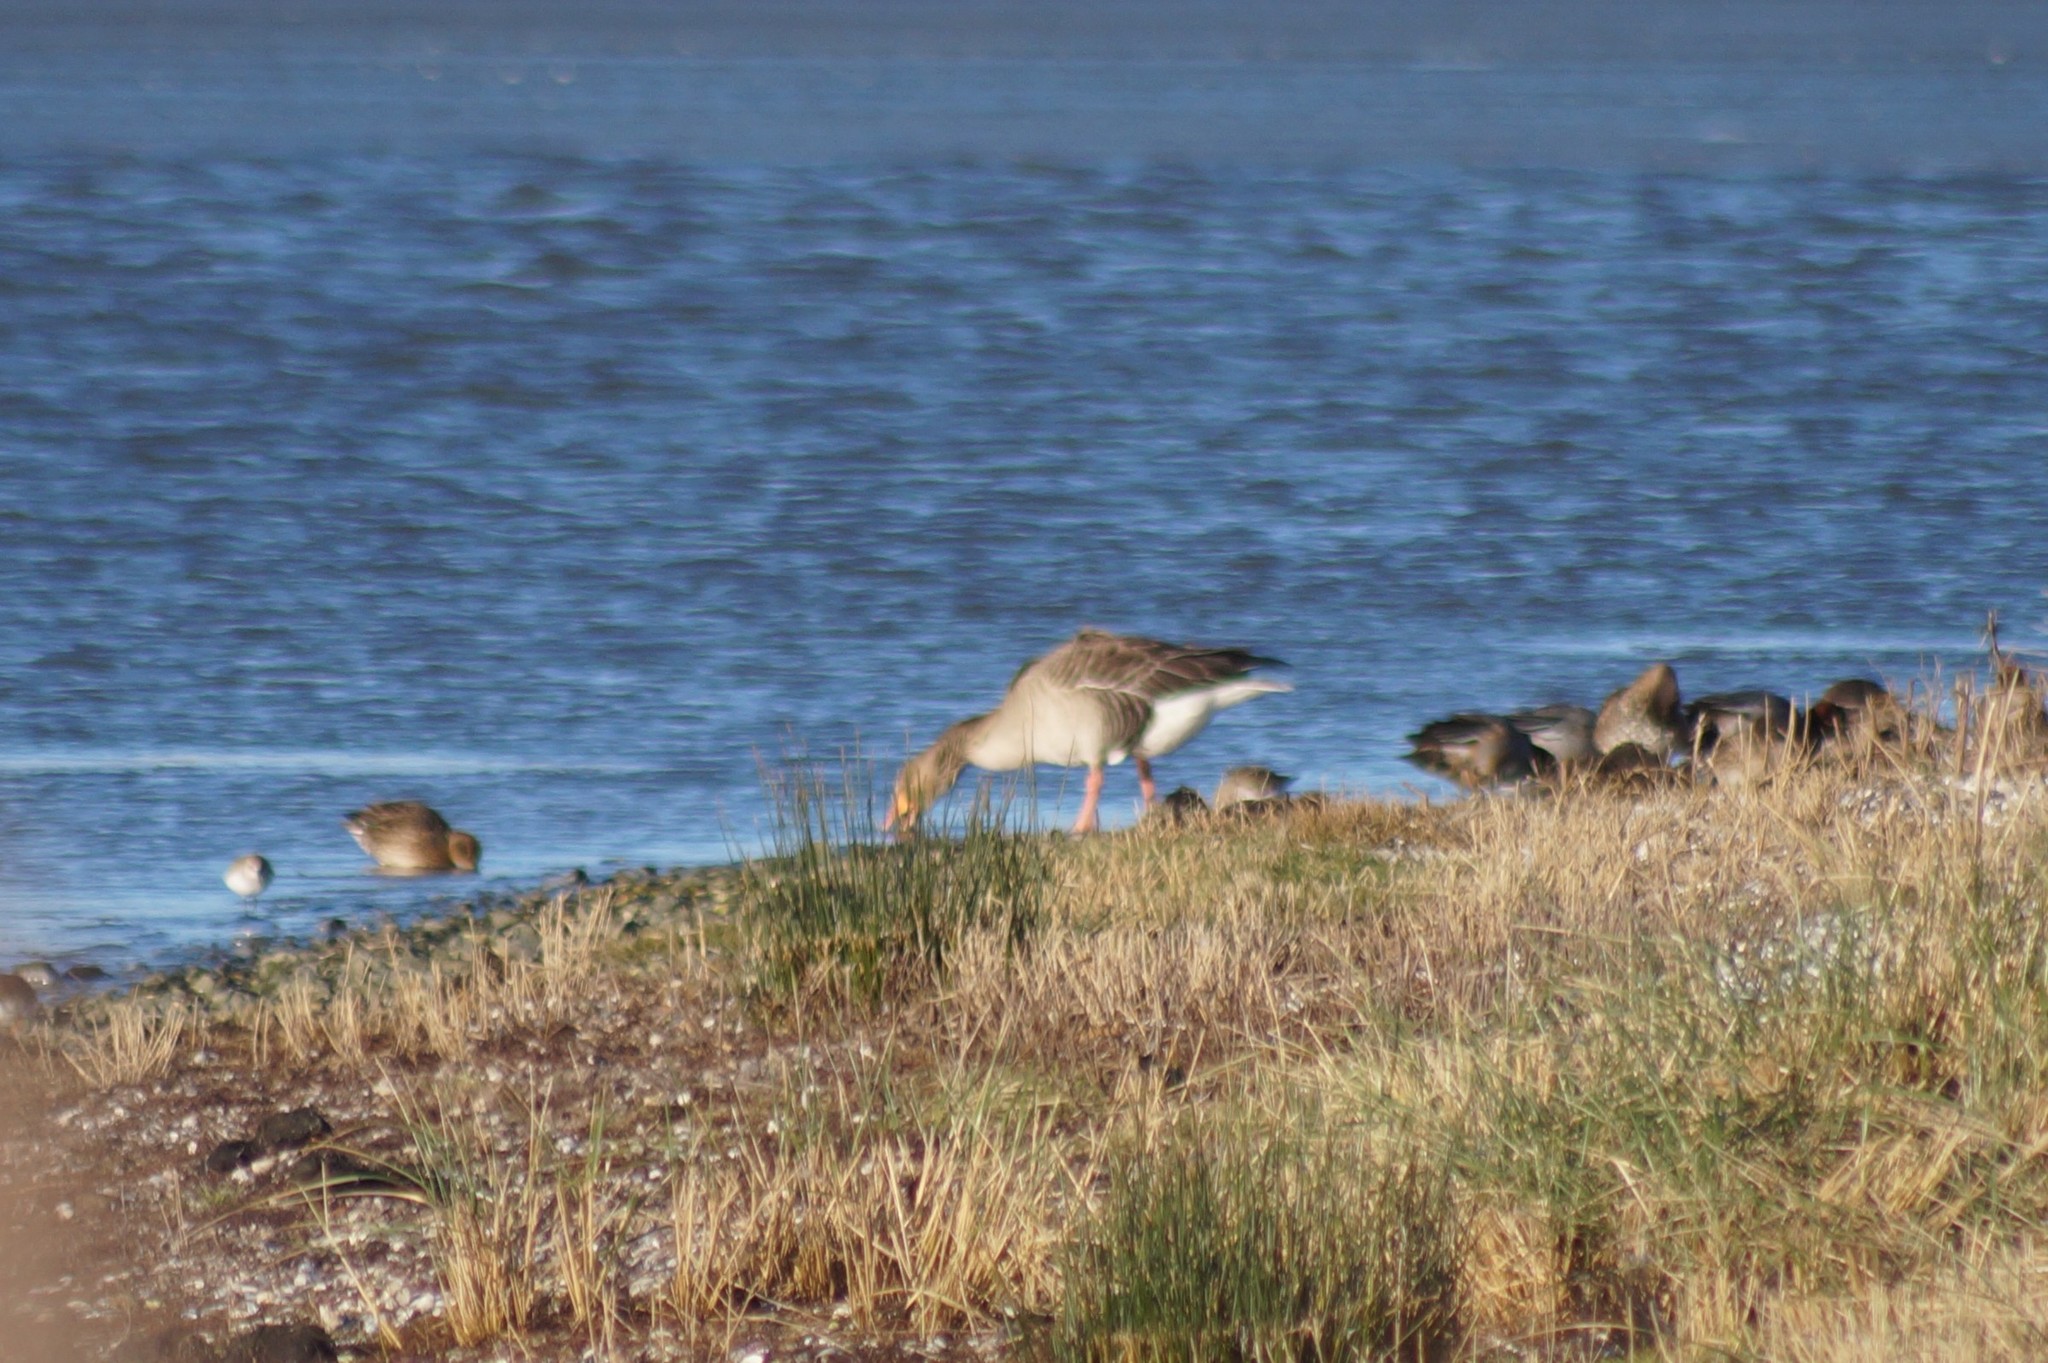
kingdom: Animalia
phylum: Chordata
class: Aves
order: Anseriformes
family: Anatidae
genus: Anser
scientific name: Anser anser
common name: Greylag goose
